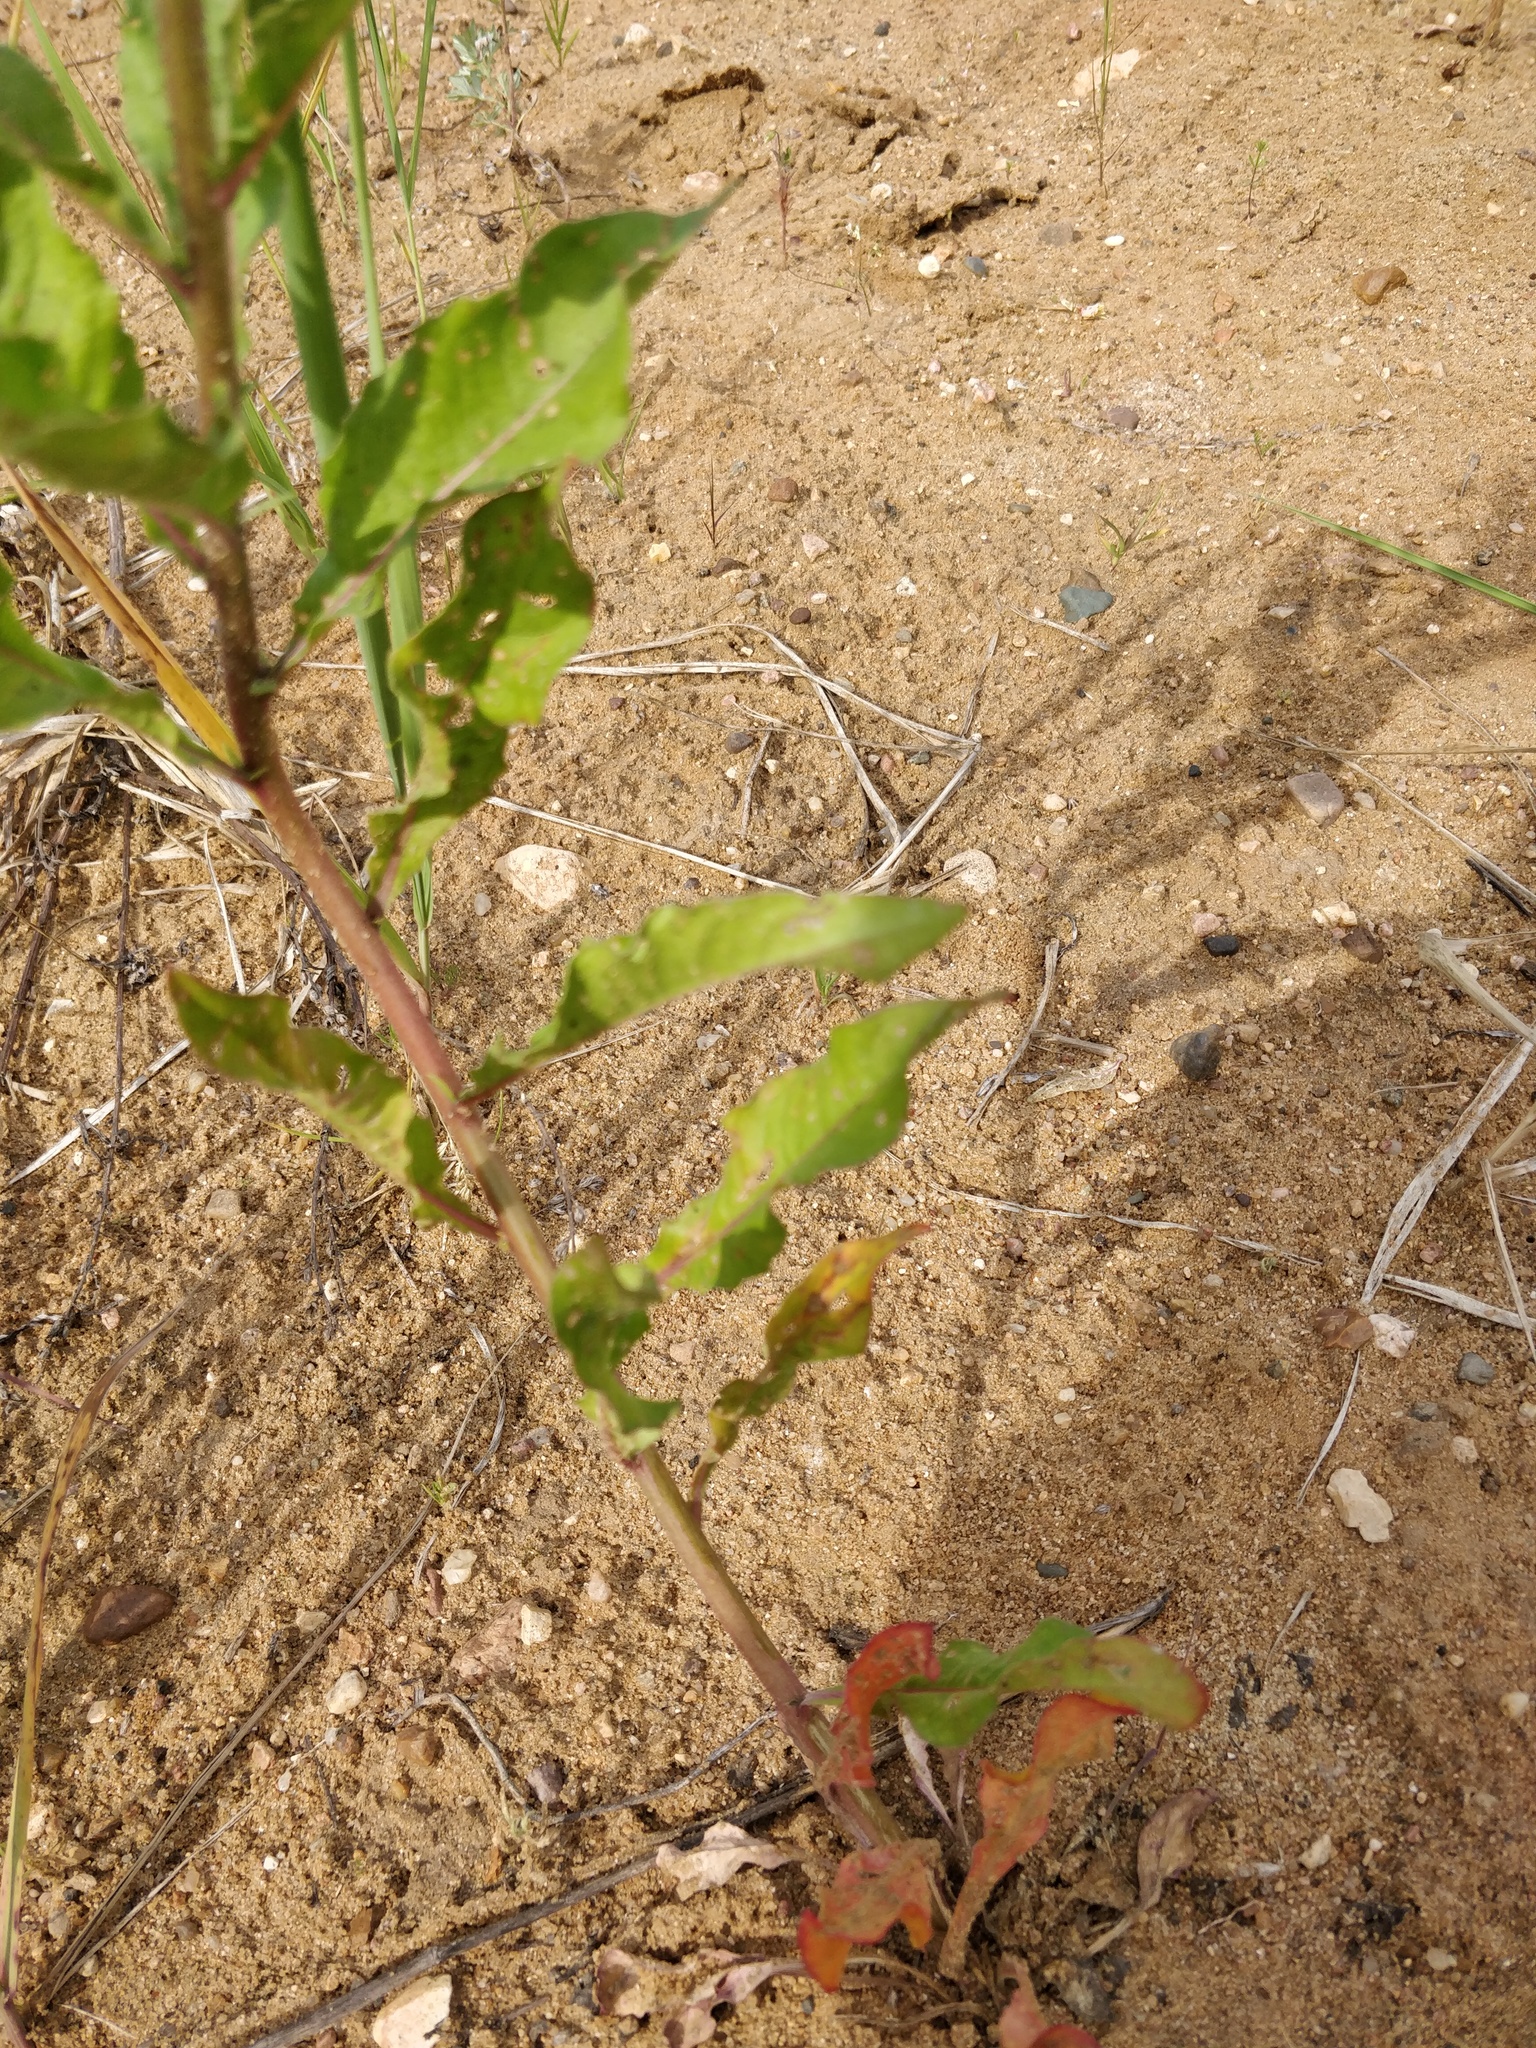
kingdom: Plantae
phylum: Tracheophyta
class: Magnoliopsida
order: Myrtales
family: Onagraceae
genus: Oenothera
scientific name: Oenothera rubricaulis
